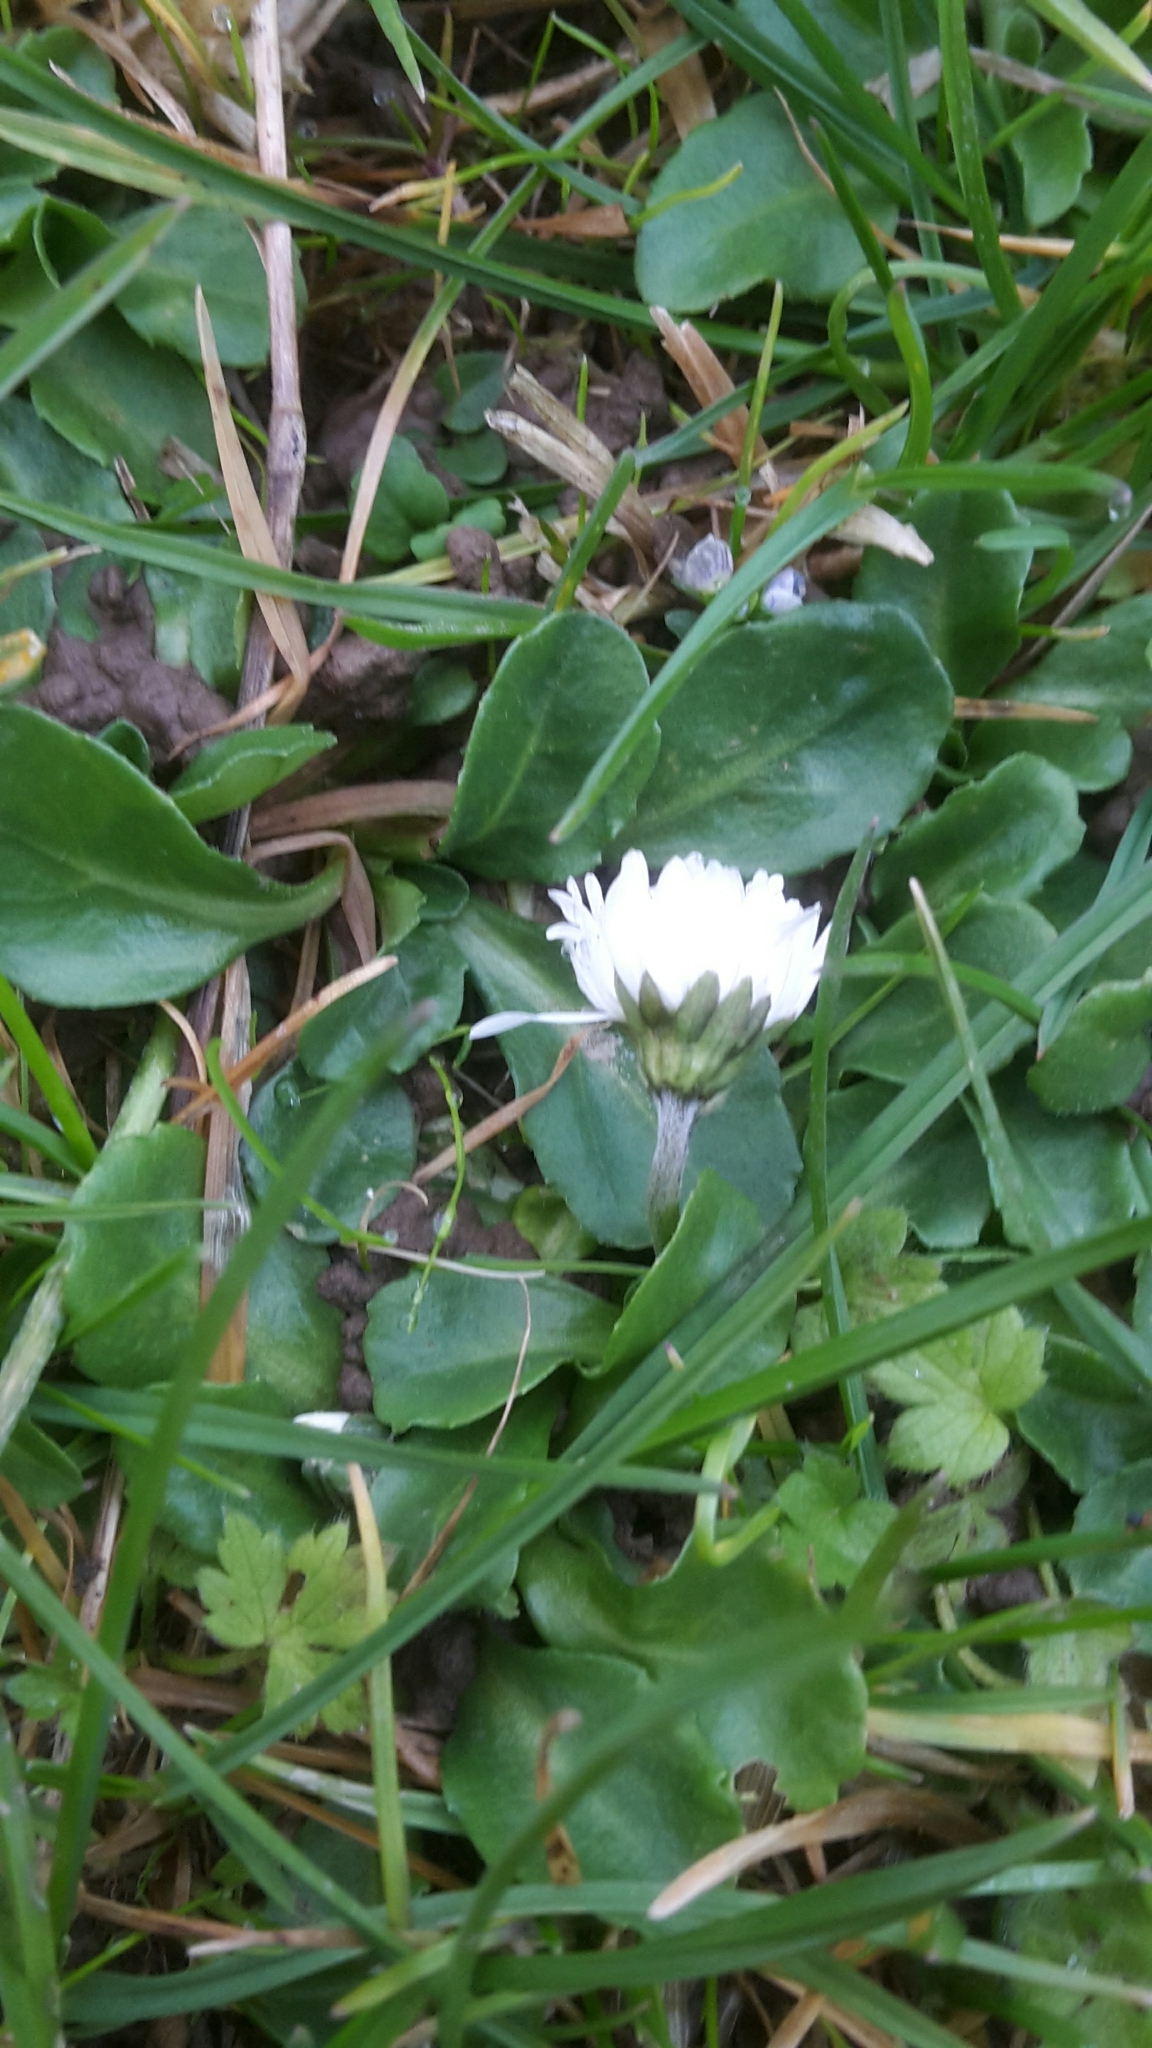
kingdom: Plantae
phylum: Tracheophyta
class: Magnoliopsida
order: Asterales
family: Asteraceae
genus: Bellis
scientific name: Bellis perennis
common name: Lawndaisy
